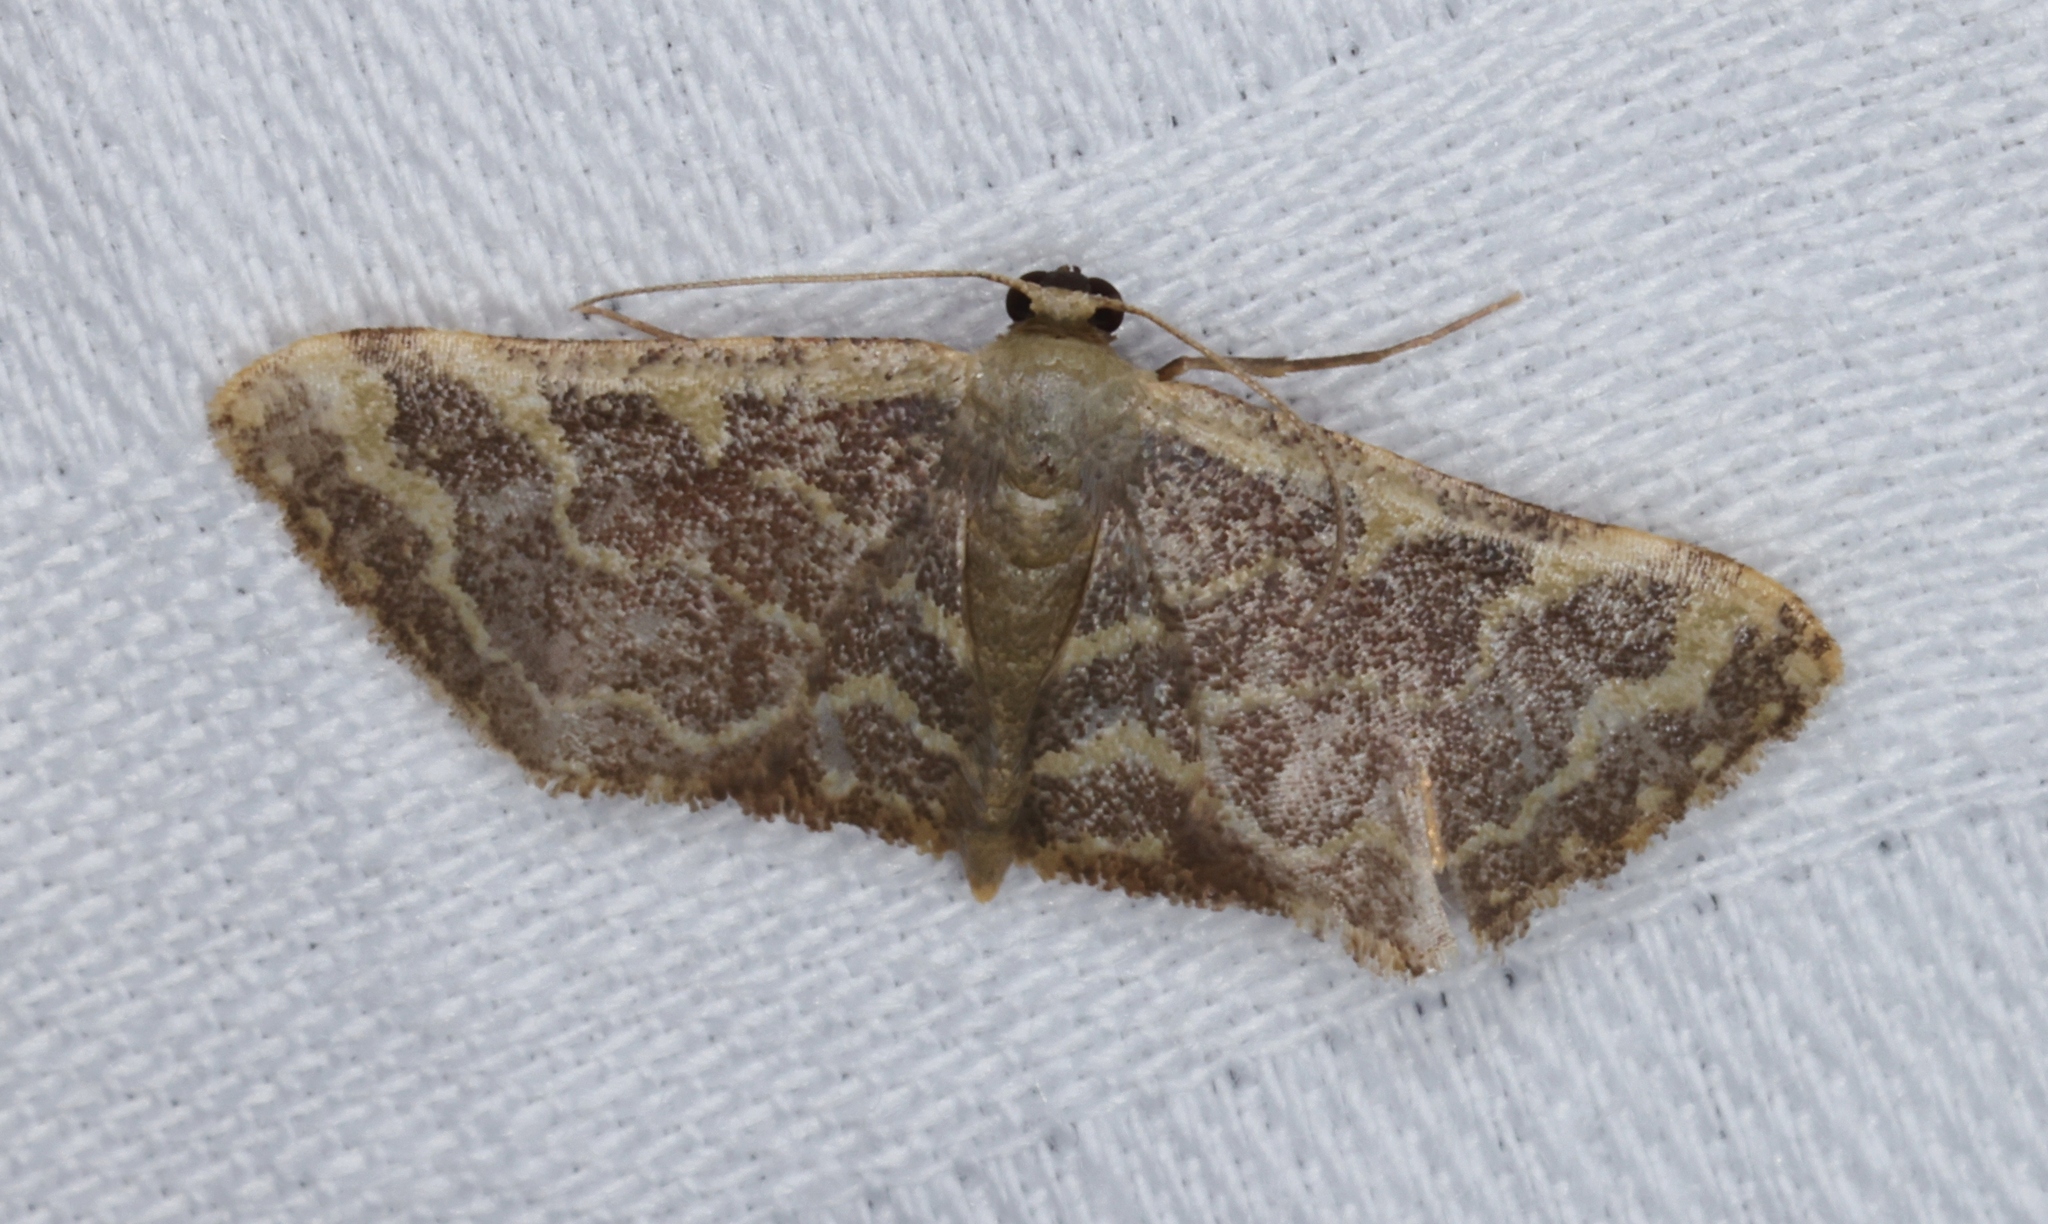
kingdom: Animalia
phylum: Arthropoda
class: Insecta
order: Lepidoptera
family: Geometridae
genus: Lophophleps
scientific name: Lophophleps purpurea
